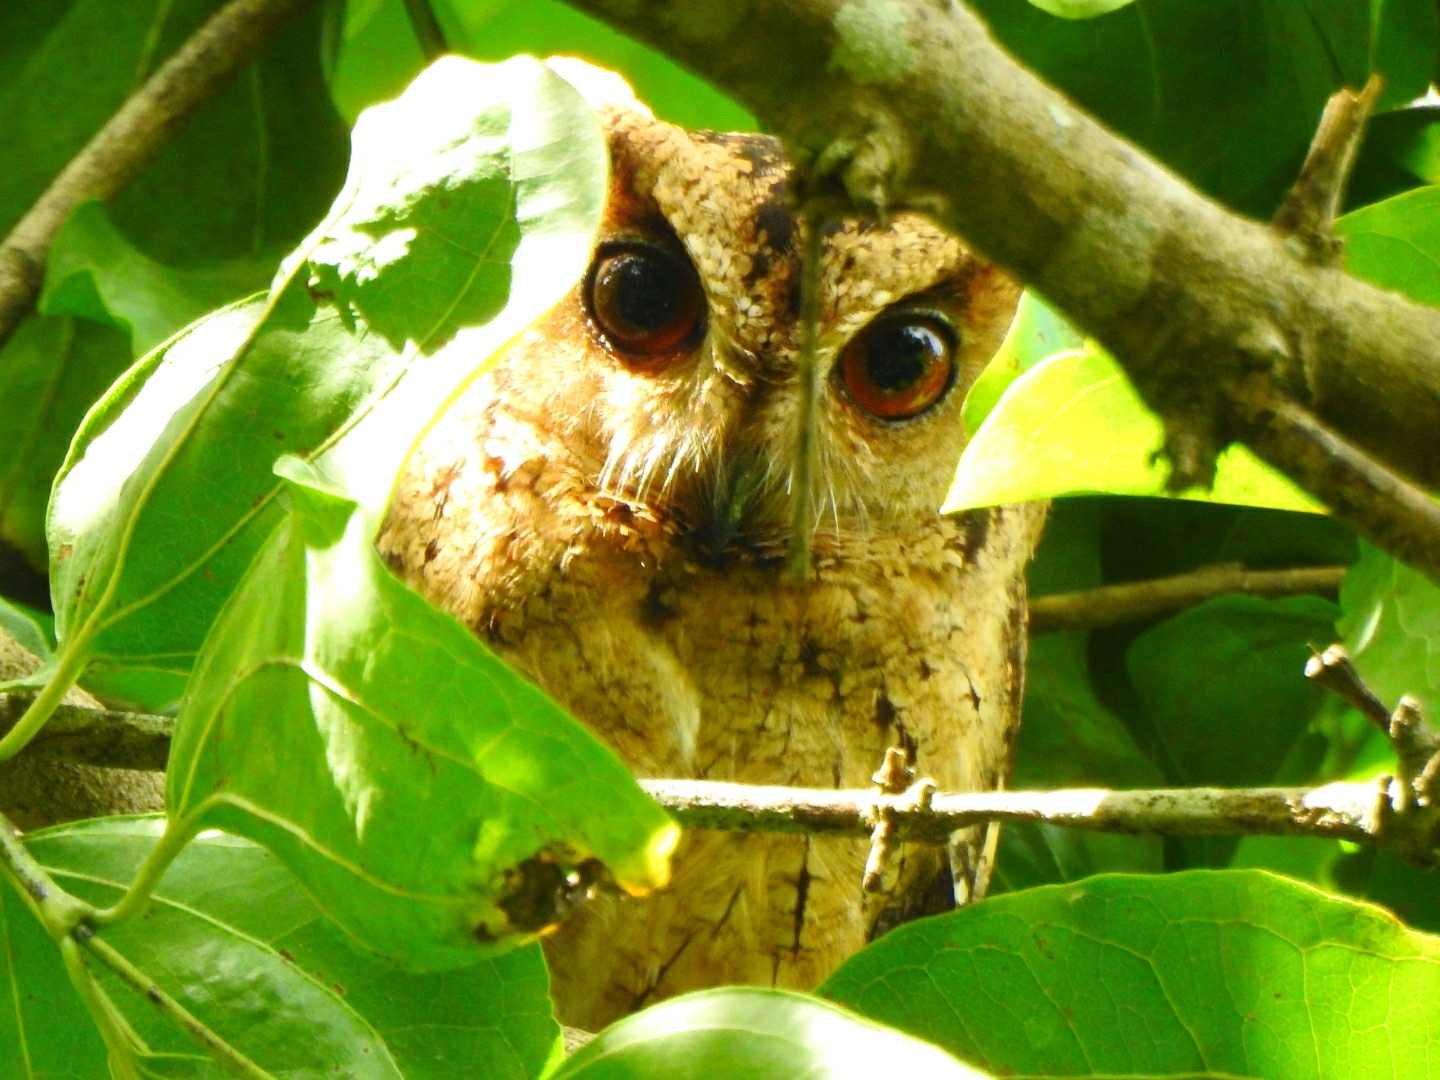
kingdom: Animalia
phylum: Chordata
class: Aves
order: Strigiformes
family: Strigidae
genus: Otus
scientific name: Otus bakkamoena
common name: Indian scops owl
